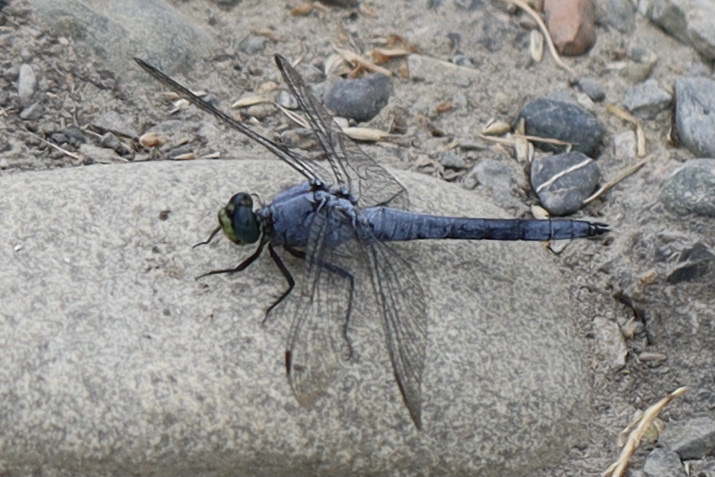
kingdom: Animalia
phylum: Arthropoda
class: Insecta
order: Odonata
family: Libellulidae
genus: Erythemis
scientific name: Erythemis collocata
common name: Western pondhawk
